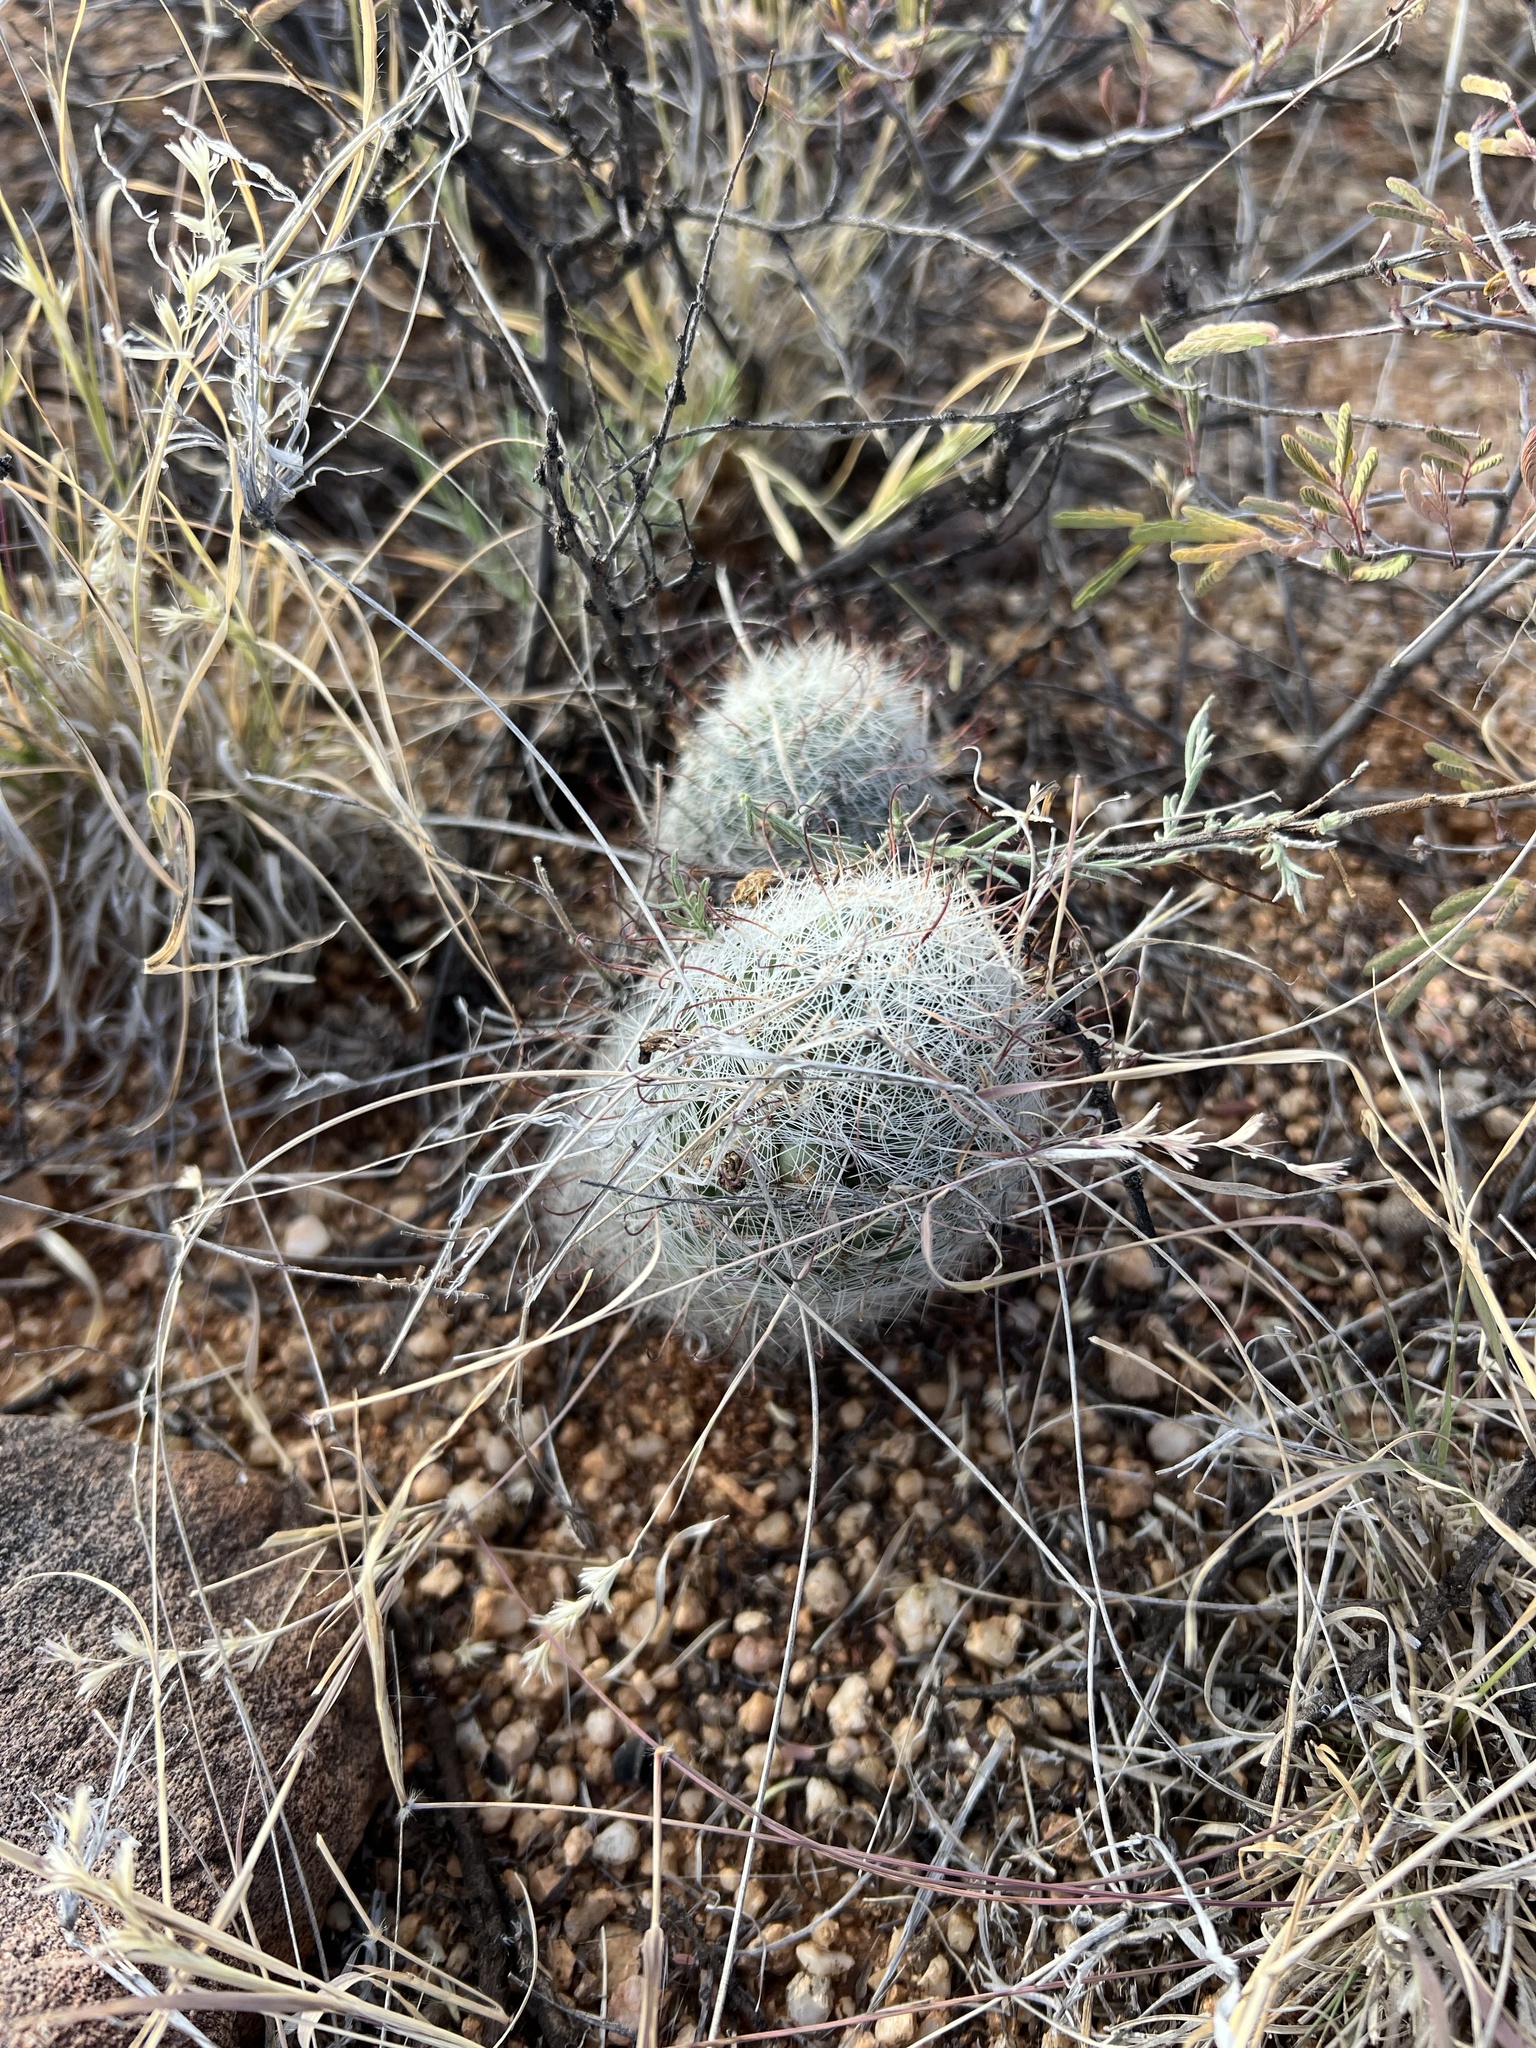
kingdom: Plantae
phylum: Tracheophyta
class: Magnoliopsida
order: Caryophyllales
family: Cactaceae
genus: Cochemiea
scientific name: Cochemiea grahamii
